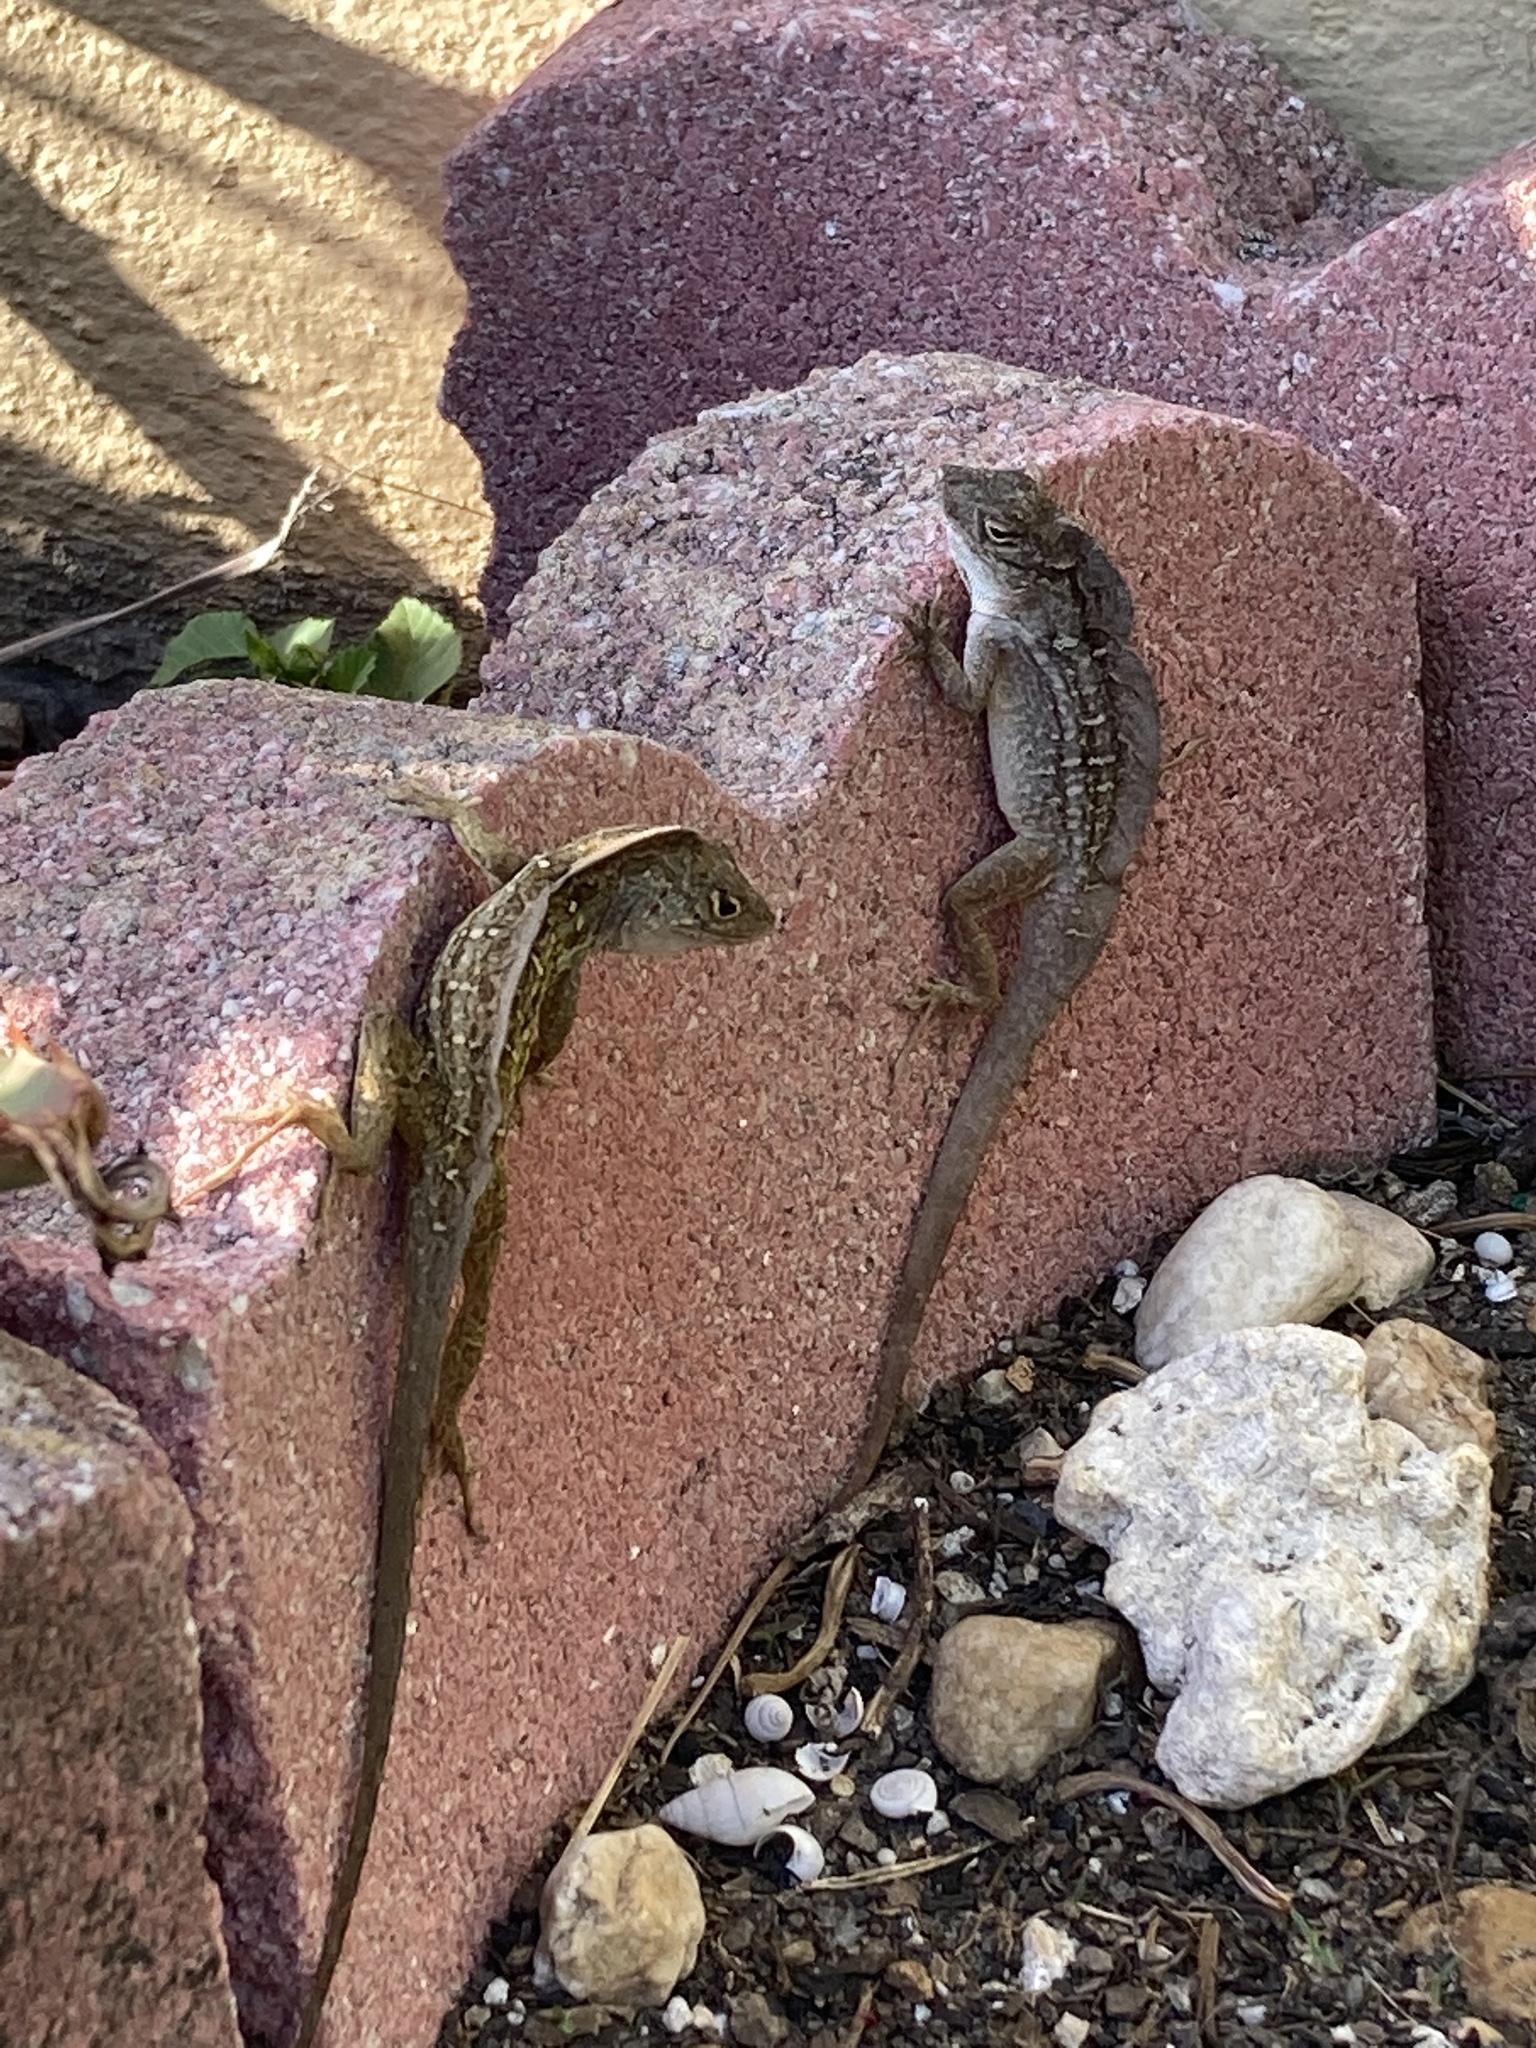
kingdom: Animalia
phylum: Chordata
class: Squamata
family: Dactyloidae
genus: Anolis
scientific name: Anolis sagrei
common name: Brown anole
